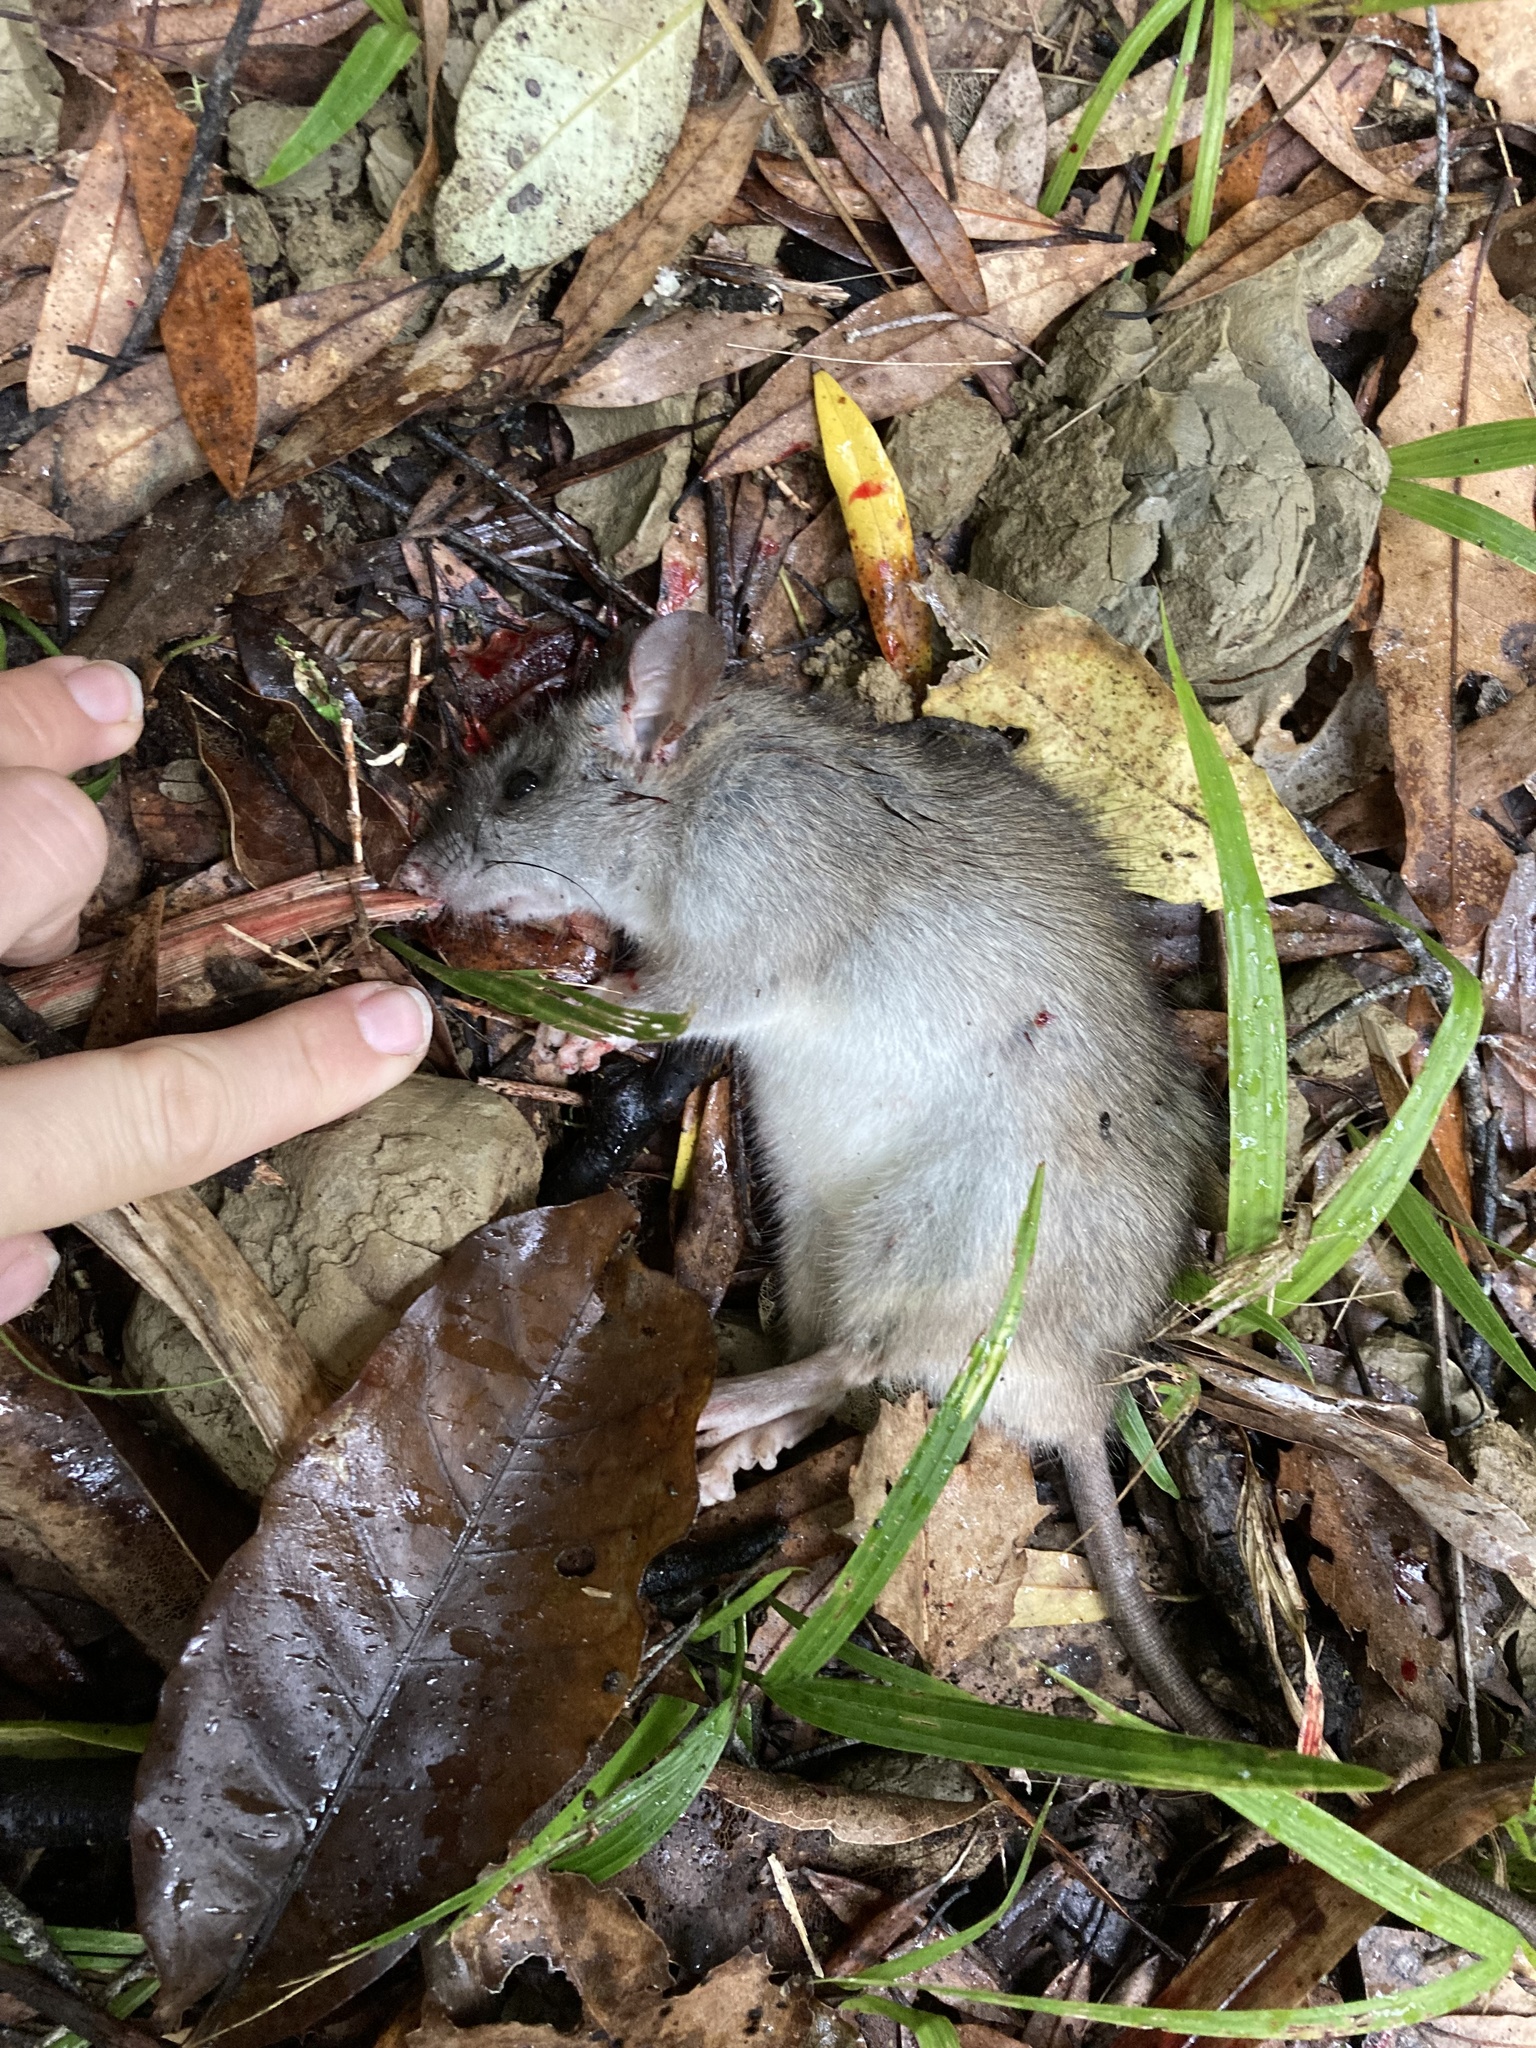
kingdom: Animalia
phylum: Chordata
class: Mammalia
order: Rodentia
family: Muridae
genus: Rattus
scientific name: Rattus rattus
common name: Black rat
